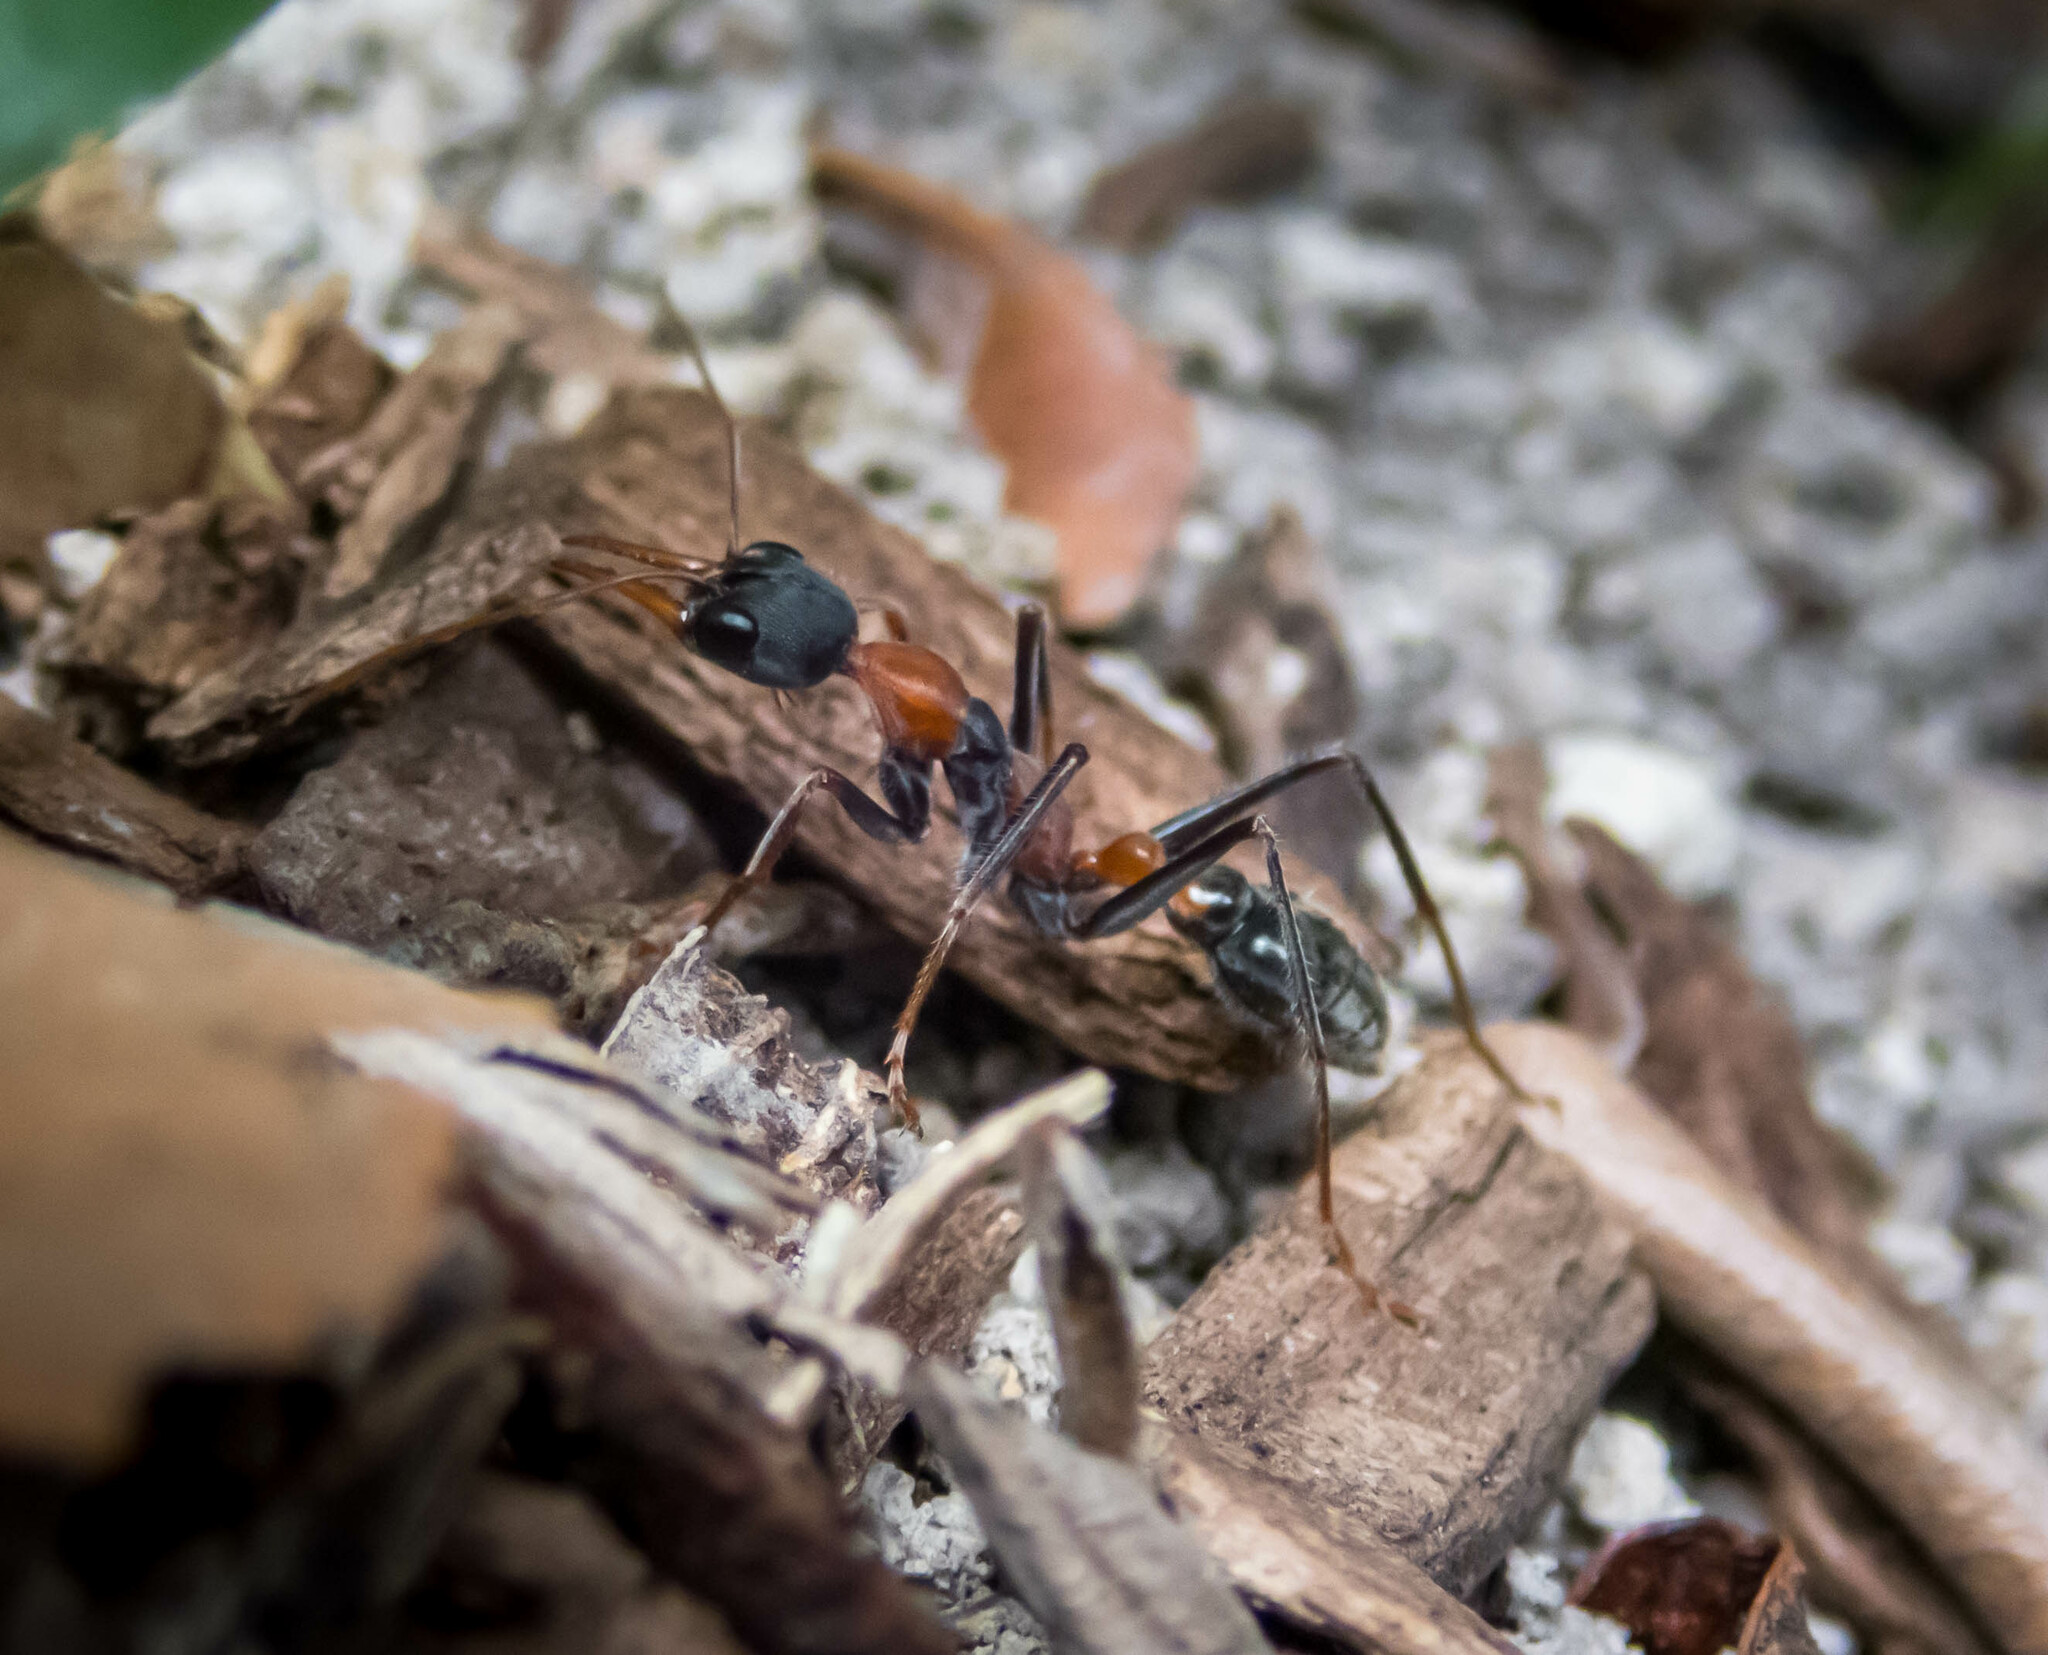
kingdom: Animalia
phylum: Arthropoda
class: Insecta
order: Hymenoptera
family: Formicidae
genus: Myrmecia
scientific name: Myrmecia nigrocincta
